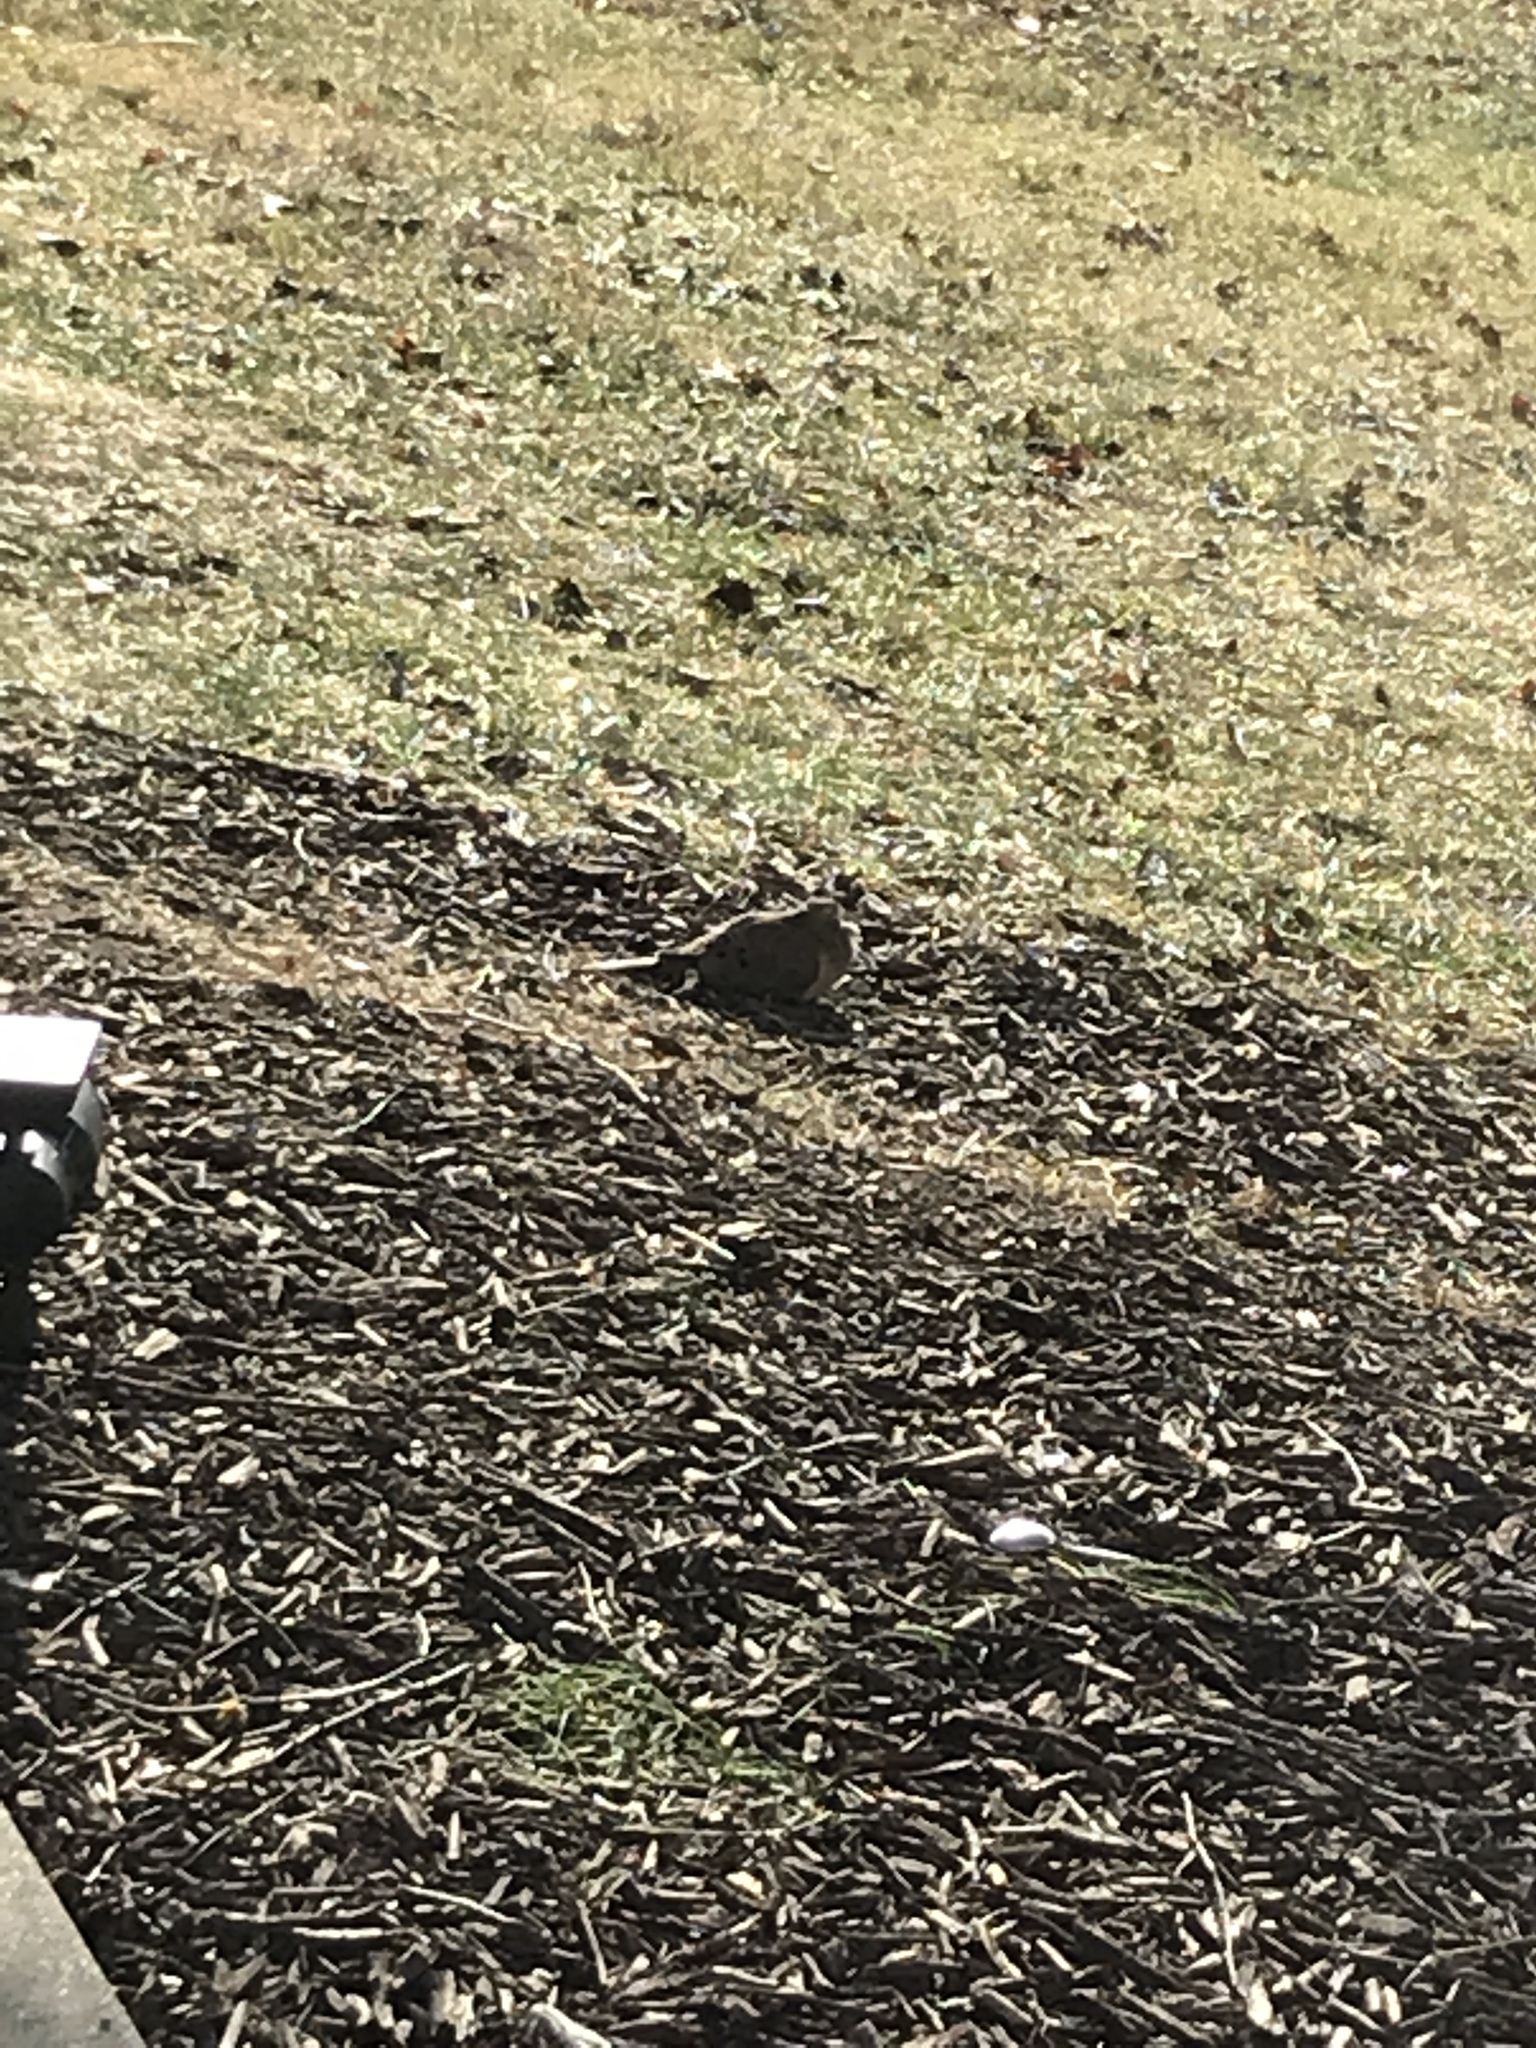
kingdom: Animalia
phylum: Chordata
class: Aves
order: Columbiformes
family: Columbidae
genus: Zenaida
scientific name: Zenaida macroura
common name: Mourning dove
